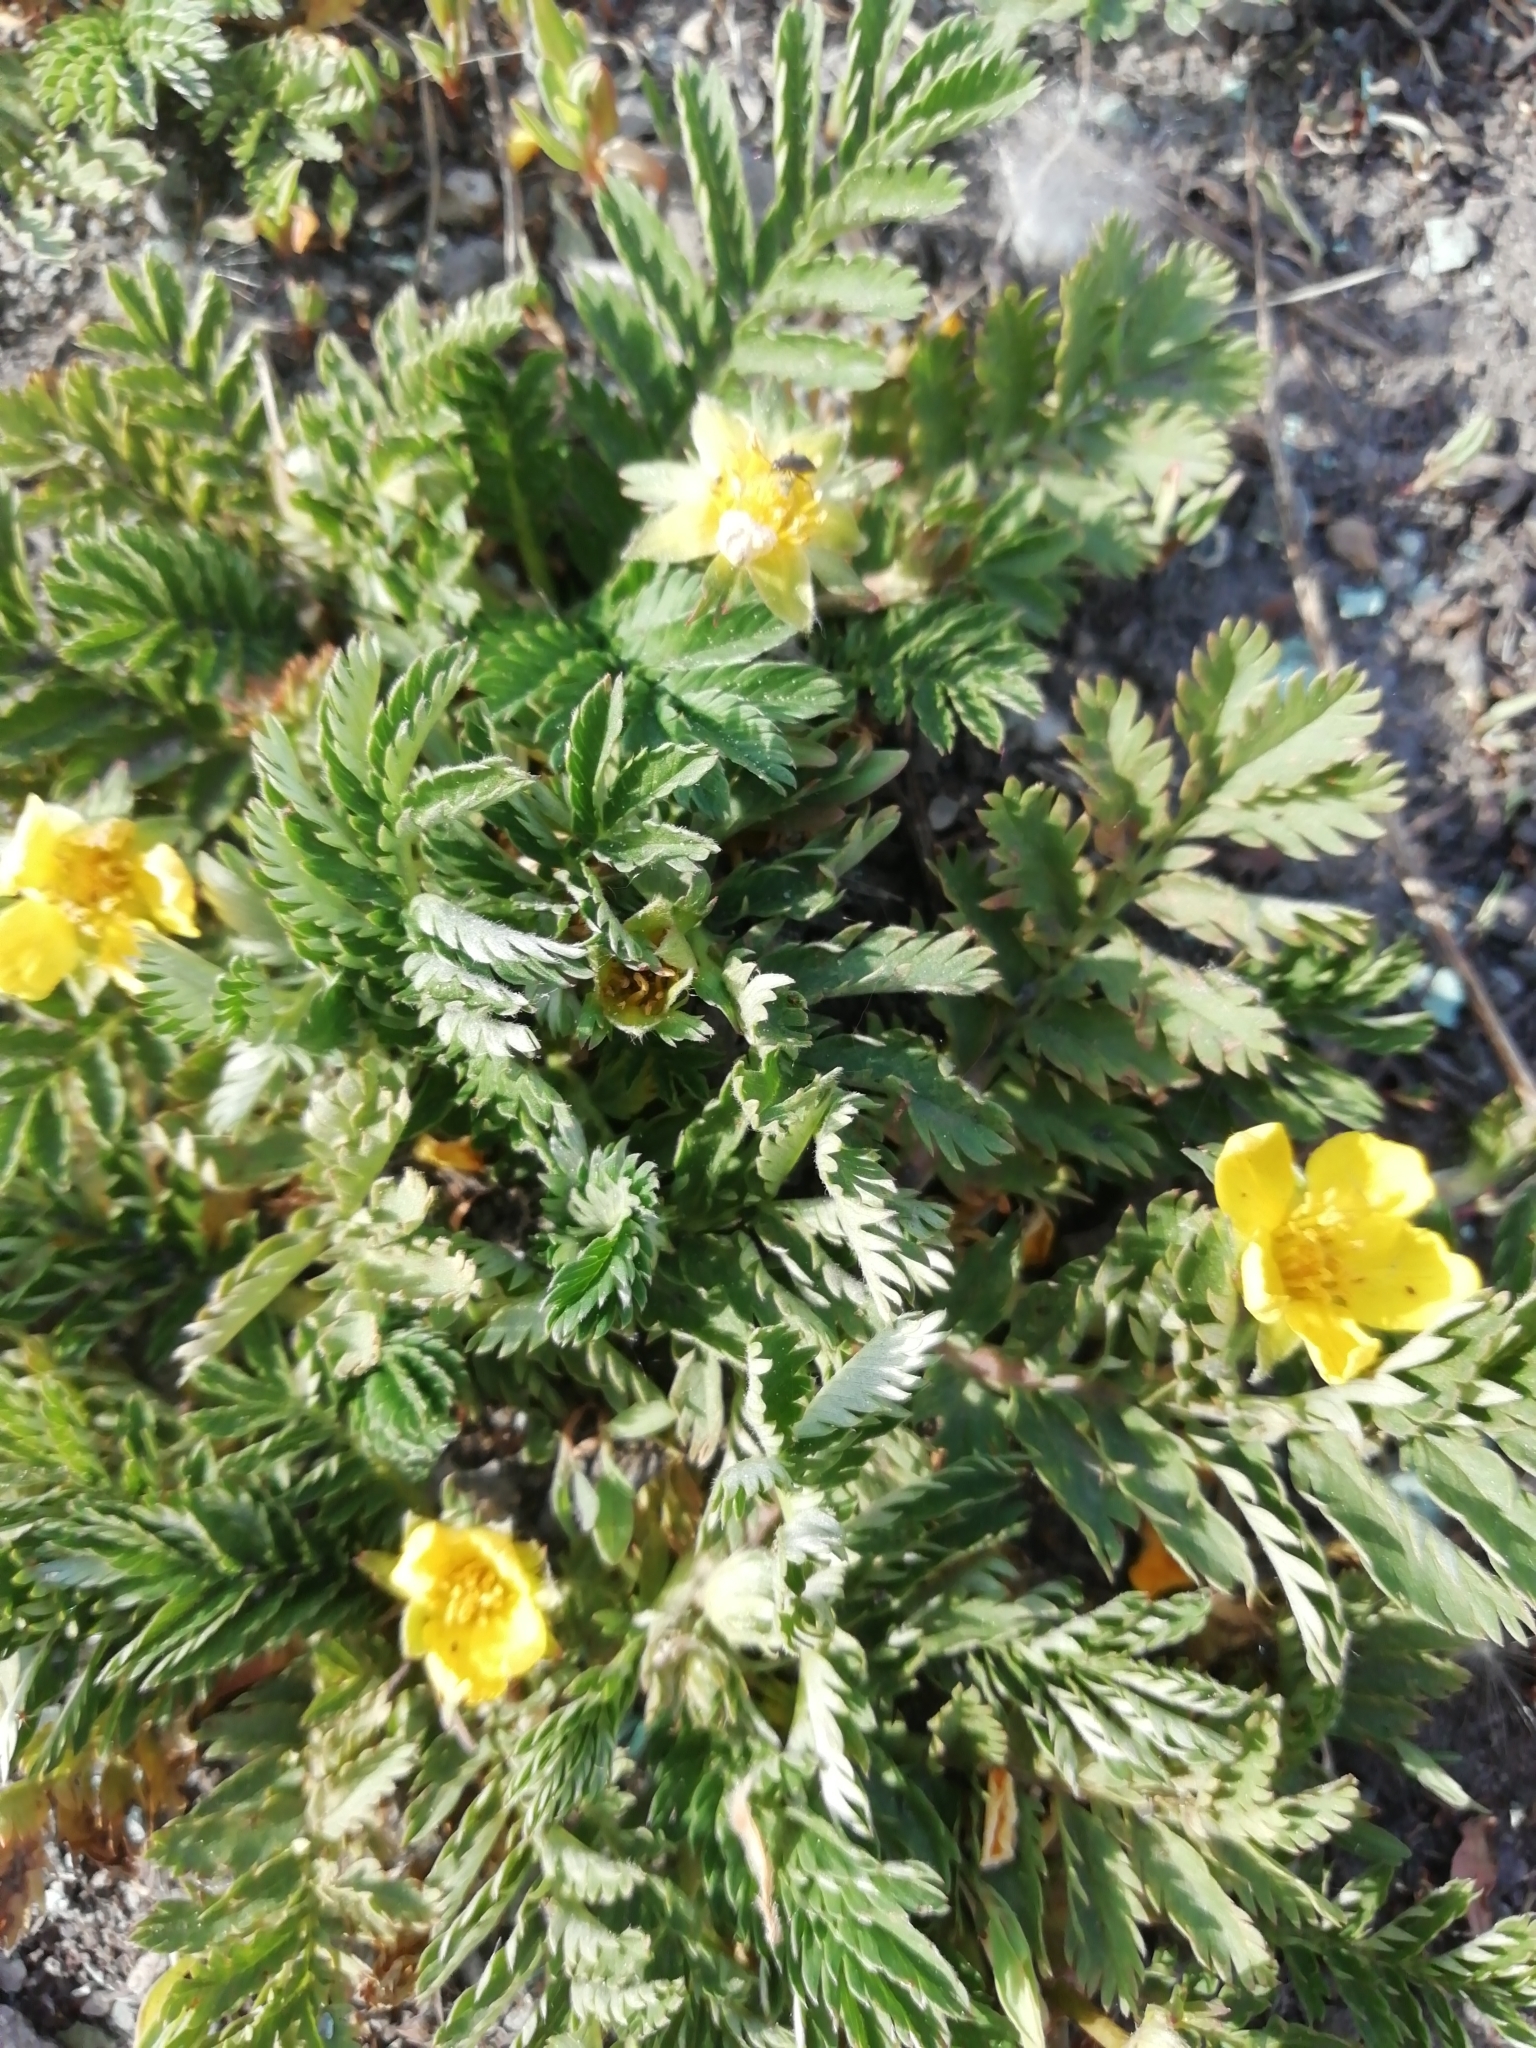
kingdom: Plantae
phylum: Tracheophyta
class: Magnoliopsida
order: Rosales
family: Rosaceae
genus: Argentina
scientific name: Argentina anserina
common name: Common silverweed
